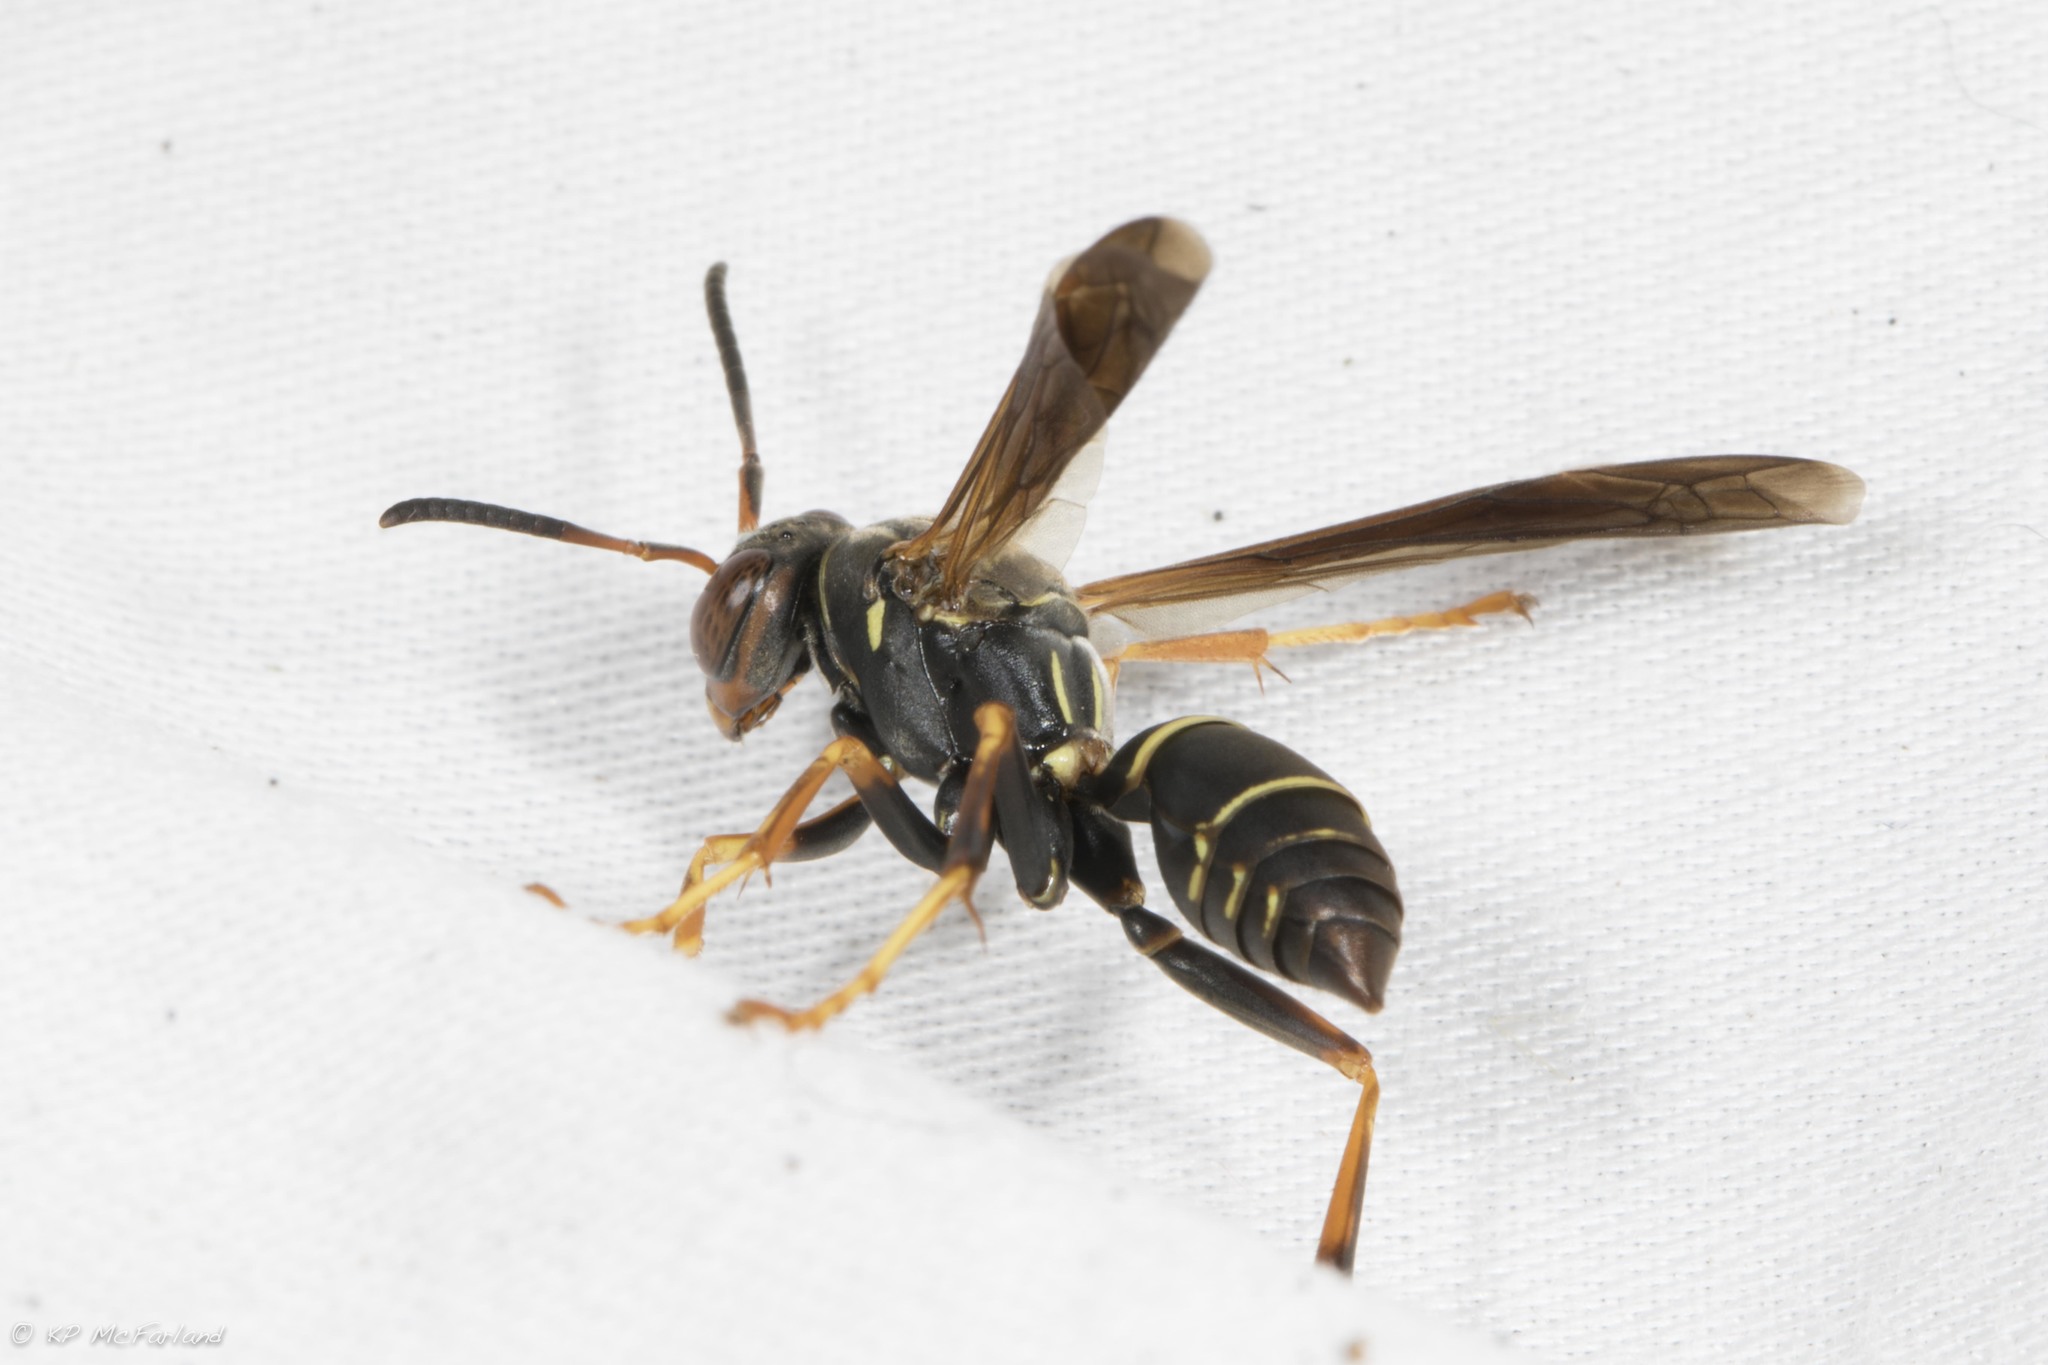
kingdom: Animalia
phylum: Arthropoda
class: Insecta
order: Hymenoptera
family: Eumenidae
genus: Polistes
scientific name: Polistes fuscatus
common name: Dark paper wasp
